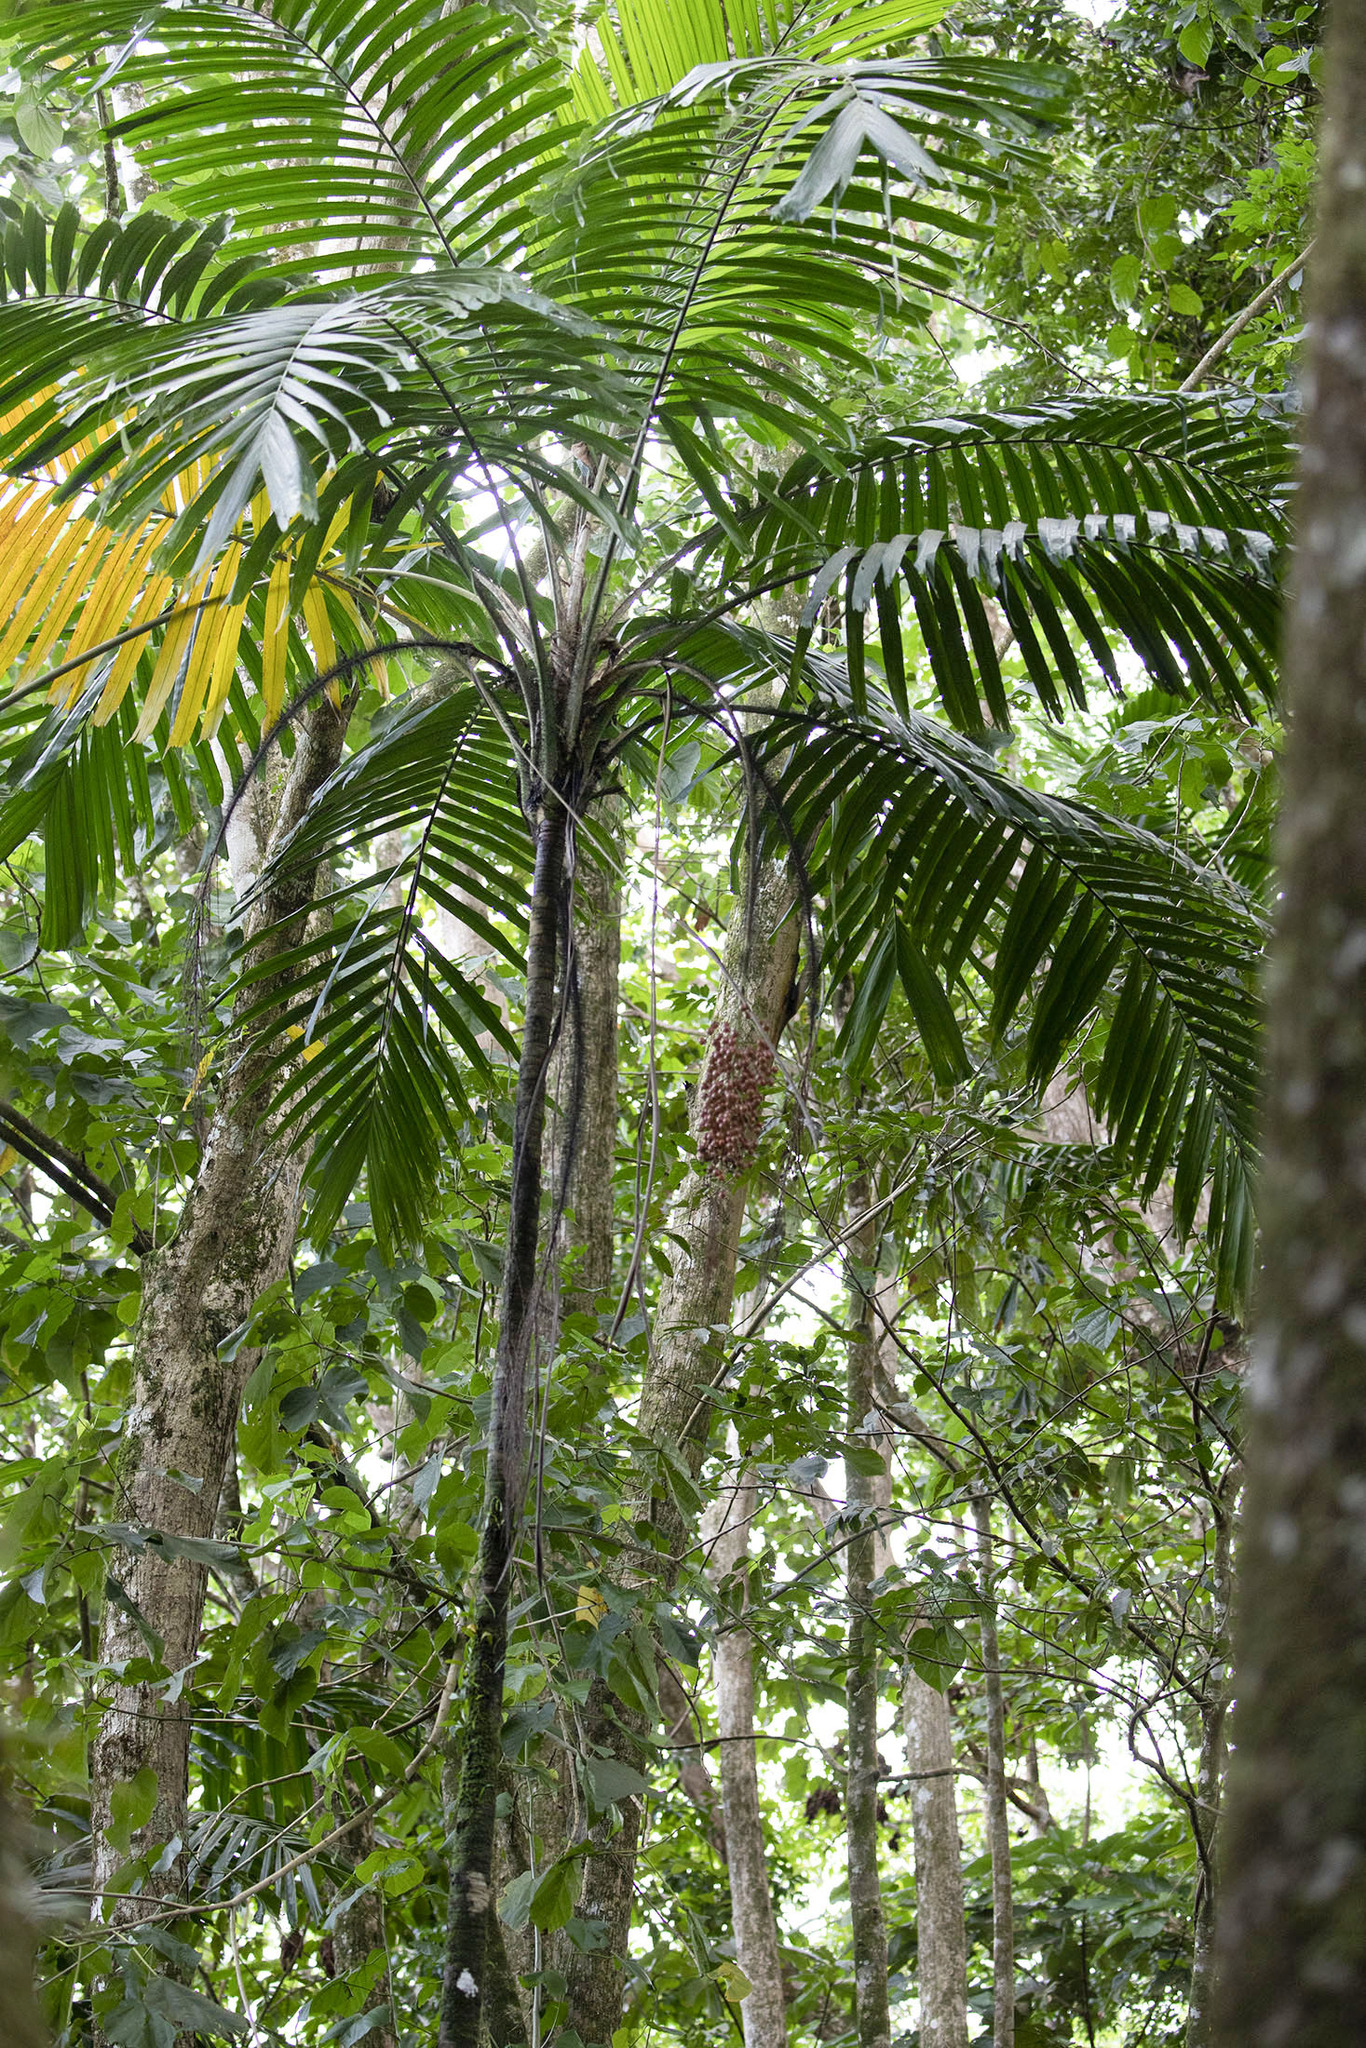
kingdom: Plantae
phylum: Tracheophyta
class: Liliopsida
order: Arecales
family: Arecaceae
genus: Aiphanes
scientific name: Aiphanes minima
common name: Grigri
